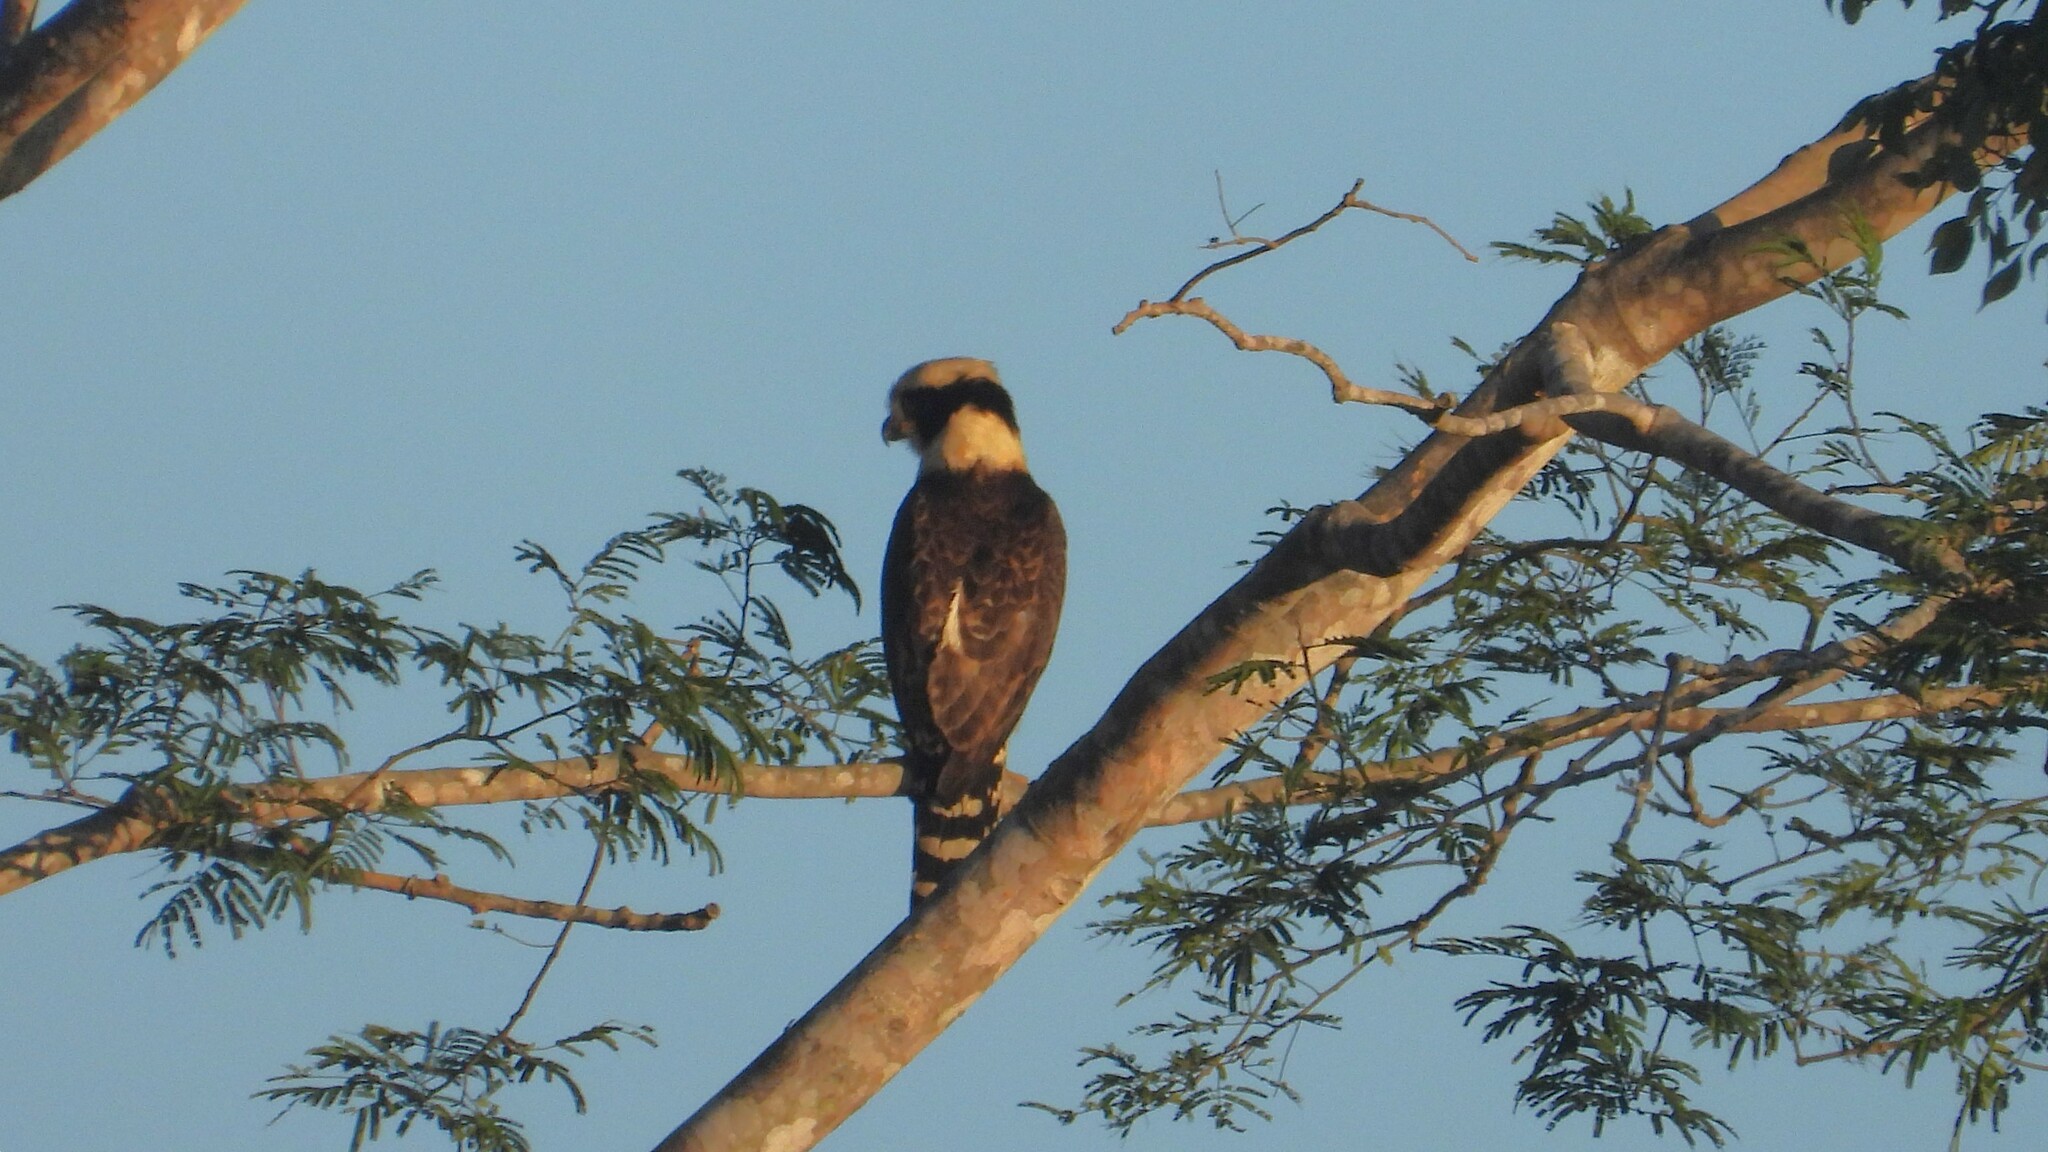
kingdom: Animalia
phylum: Chordata
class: Aves
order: Falconiformes
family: Falconidae
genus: Herpetotheres
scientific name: Herpetotheres cachinnans
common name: Laughing falcon
